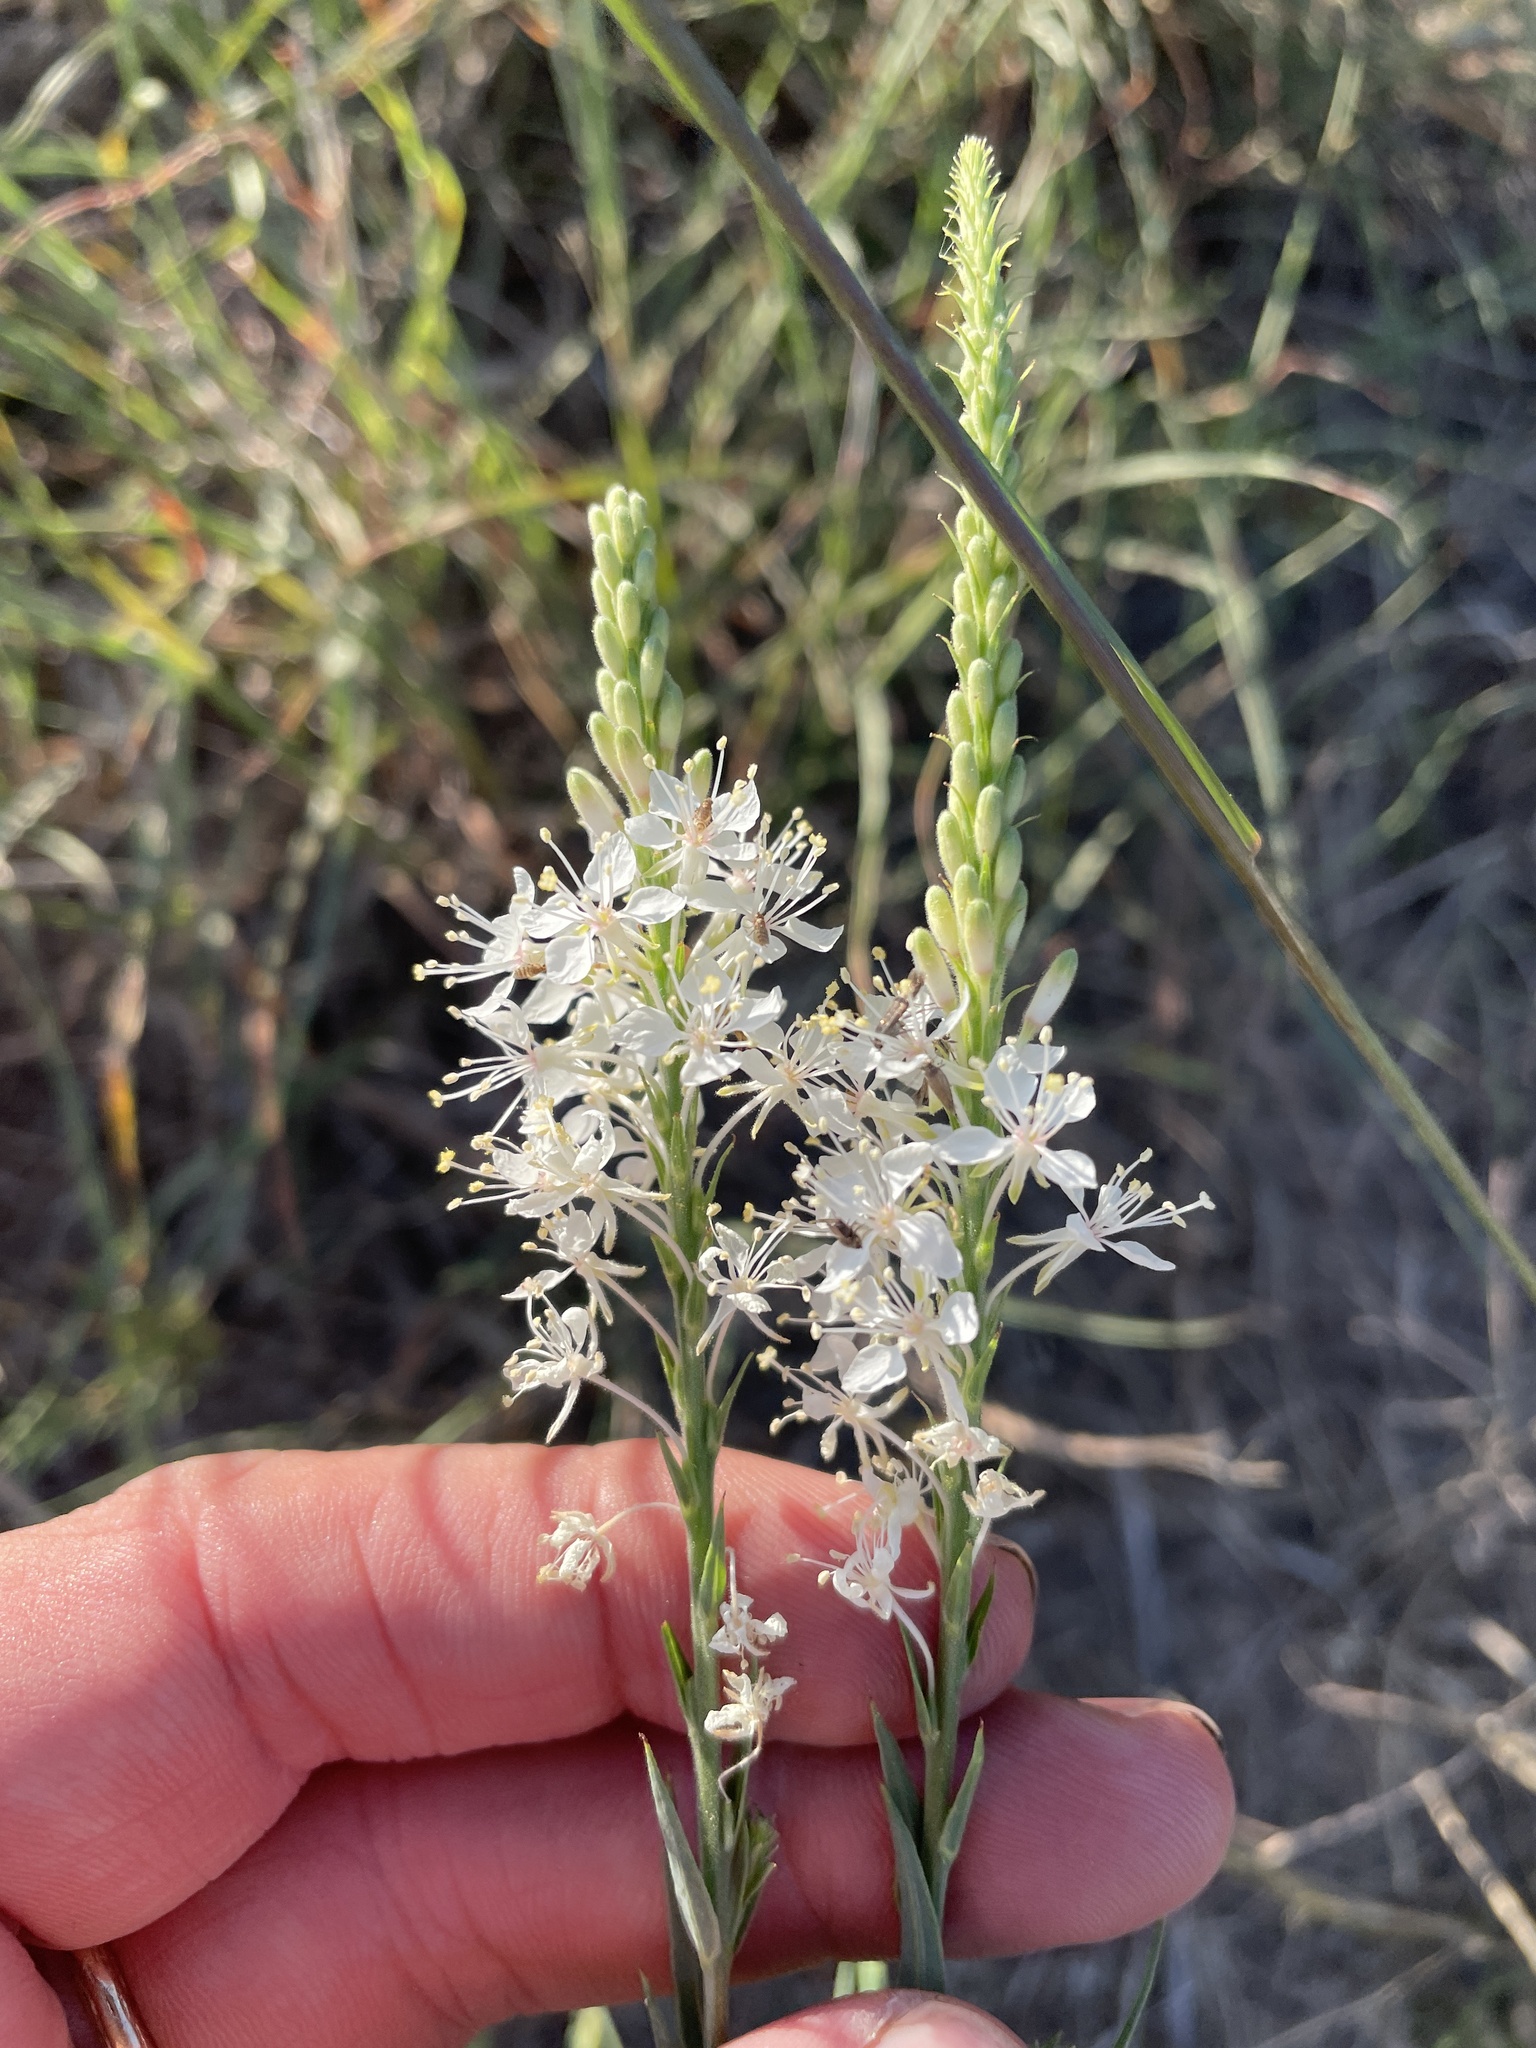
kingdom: Plantae
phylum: Tracheophyta
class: Magnoliopsida
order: Myrtales
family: Onagraceae
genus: Oenothera
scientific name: Oenothera glaucifolia
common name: False gaura
